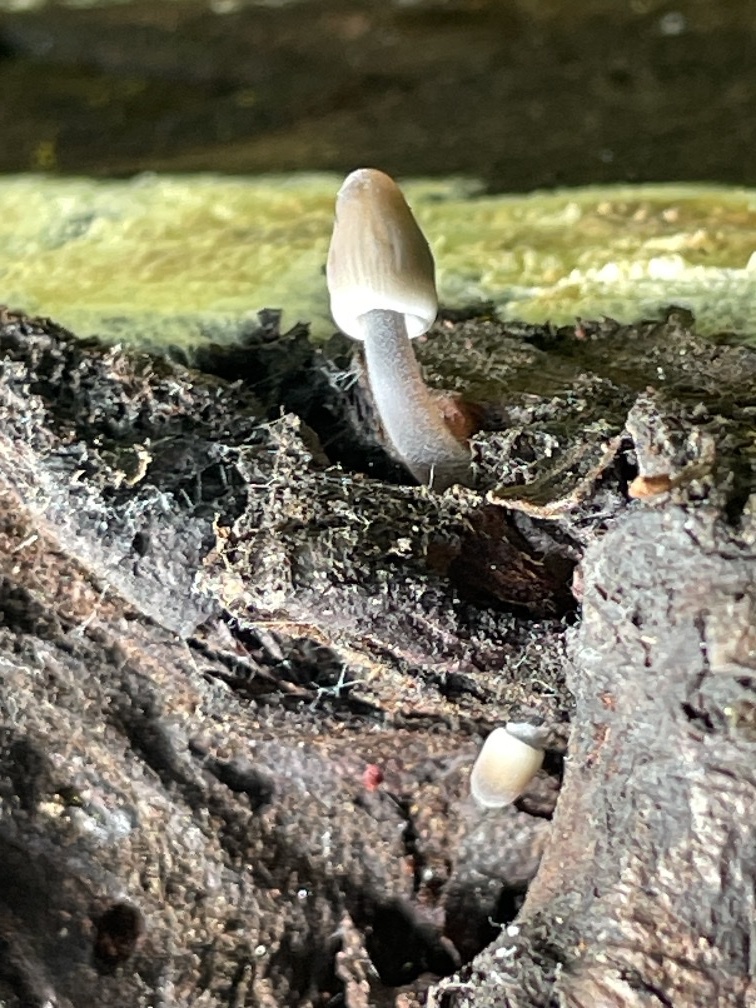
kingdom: Fungi
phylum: Basidiomycota
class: Agaricomycetes
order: Agaricales
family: Mycenaceae
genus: Mycena
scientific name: Mycena filopes
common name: Iodine bonnet
